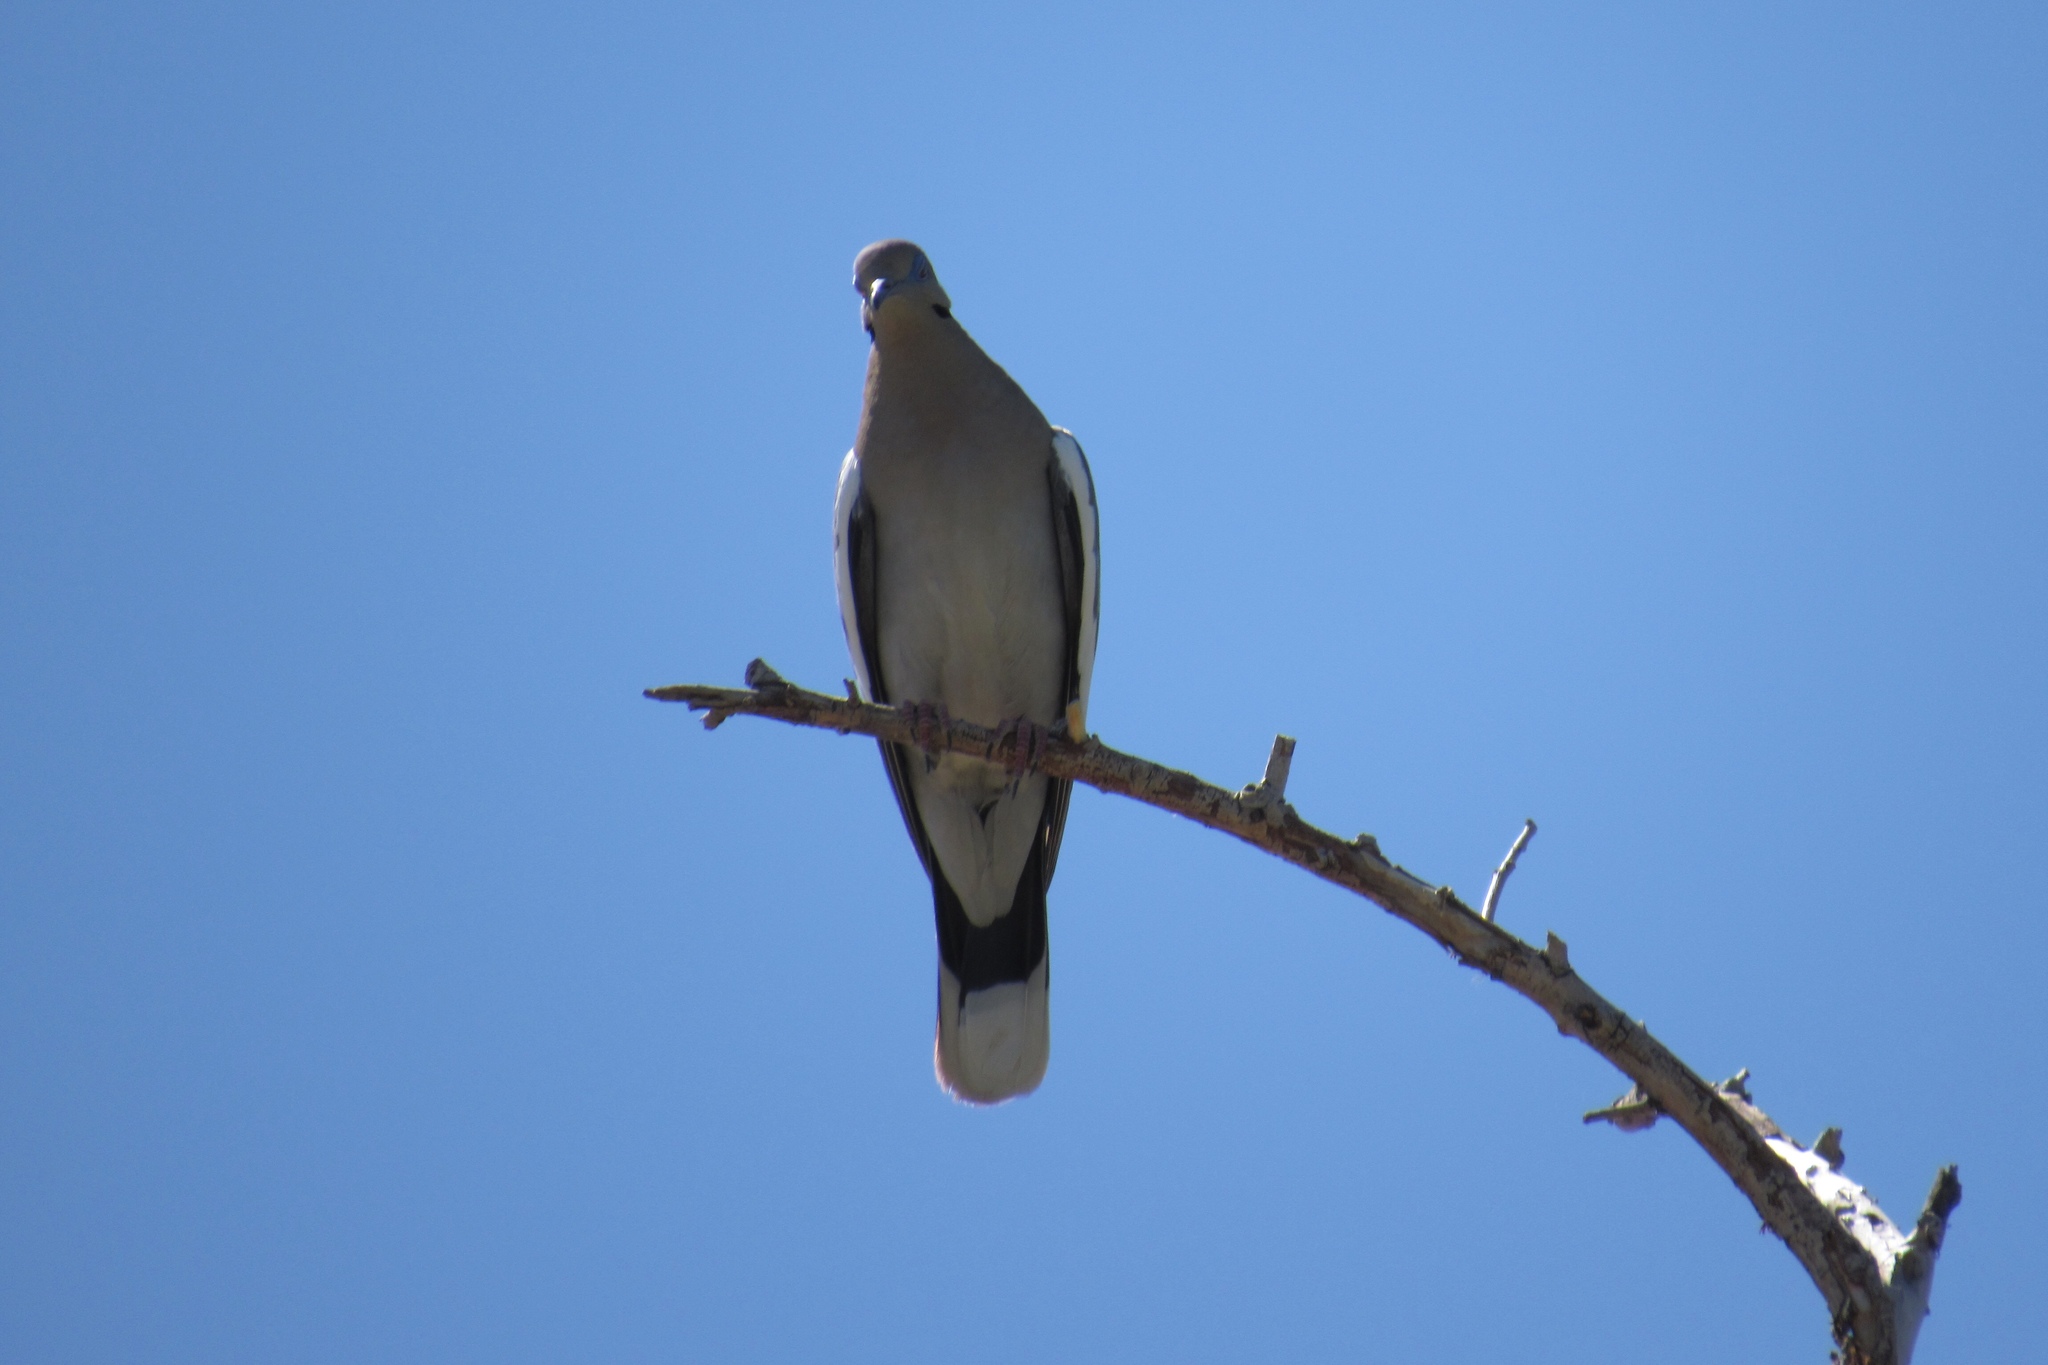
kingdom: Animalia
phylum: Chordata
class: Aves
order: Columbiformes
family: Columbidae
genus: Zenaida
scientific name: Zenaida asiatica
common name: White-winged dove
